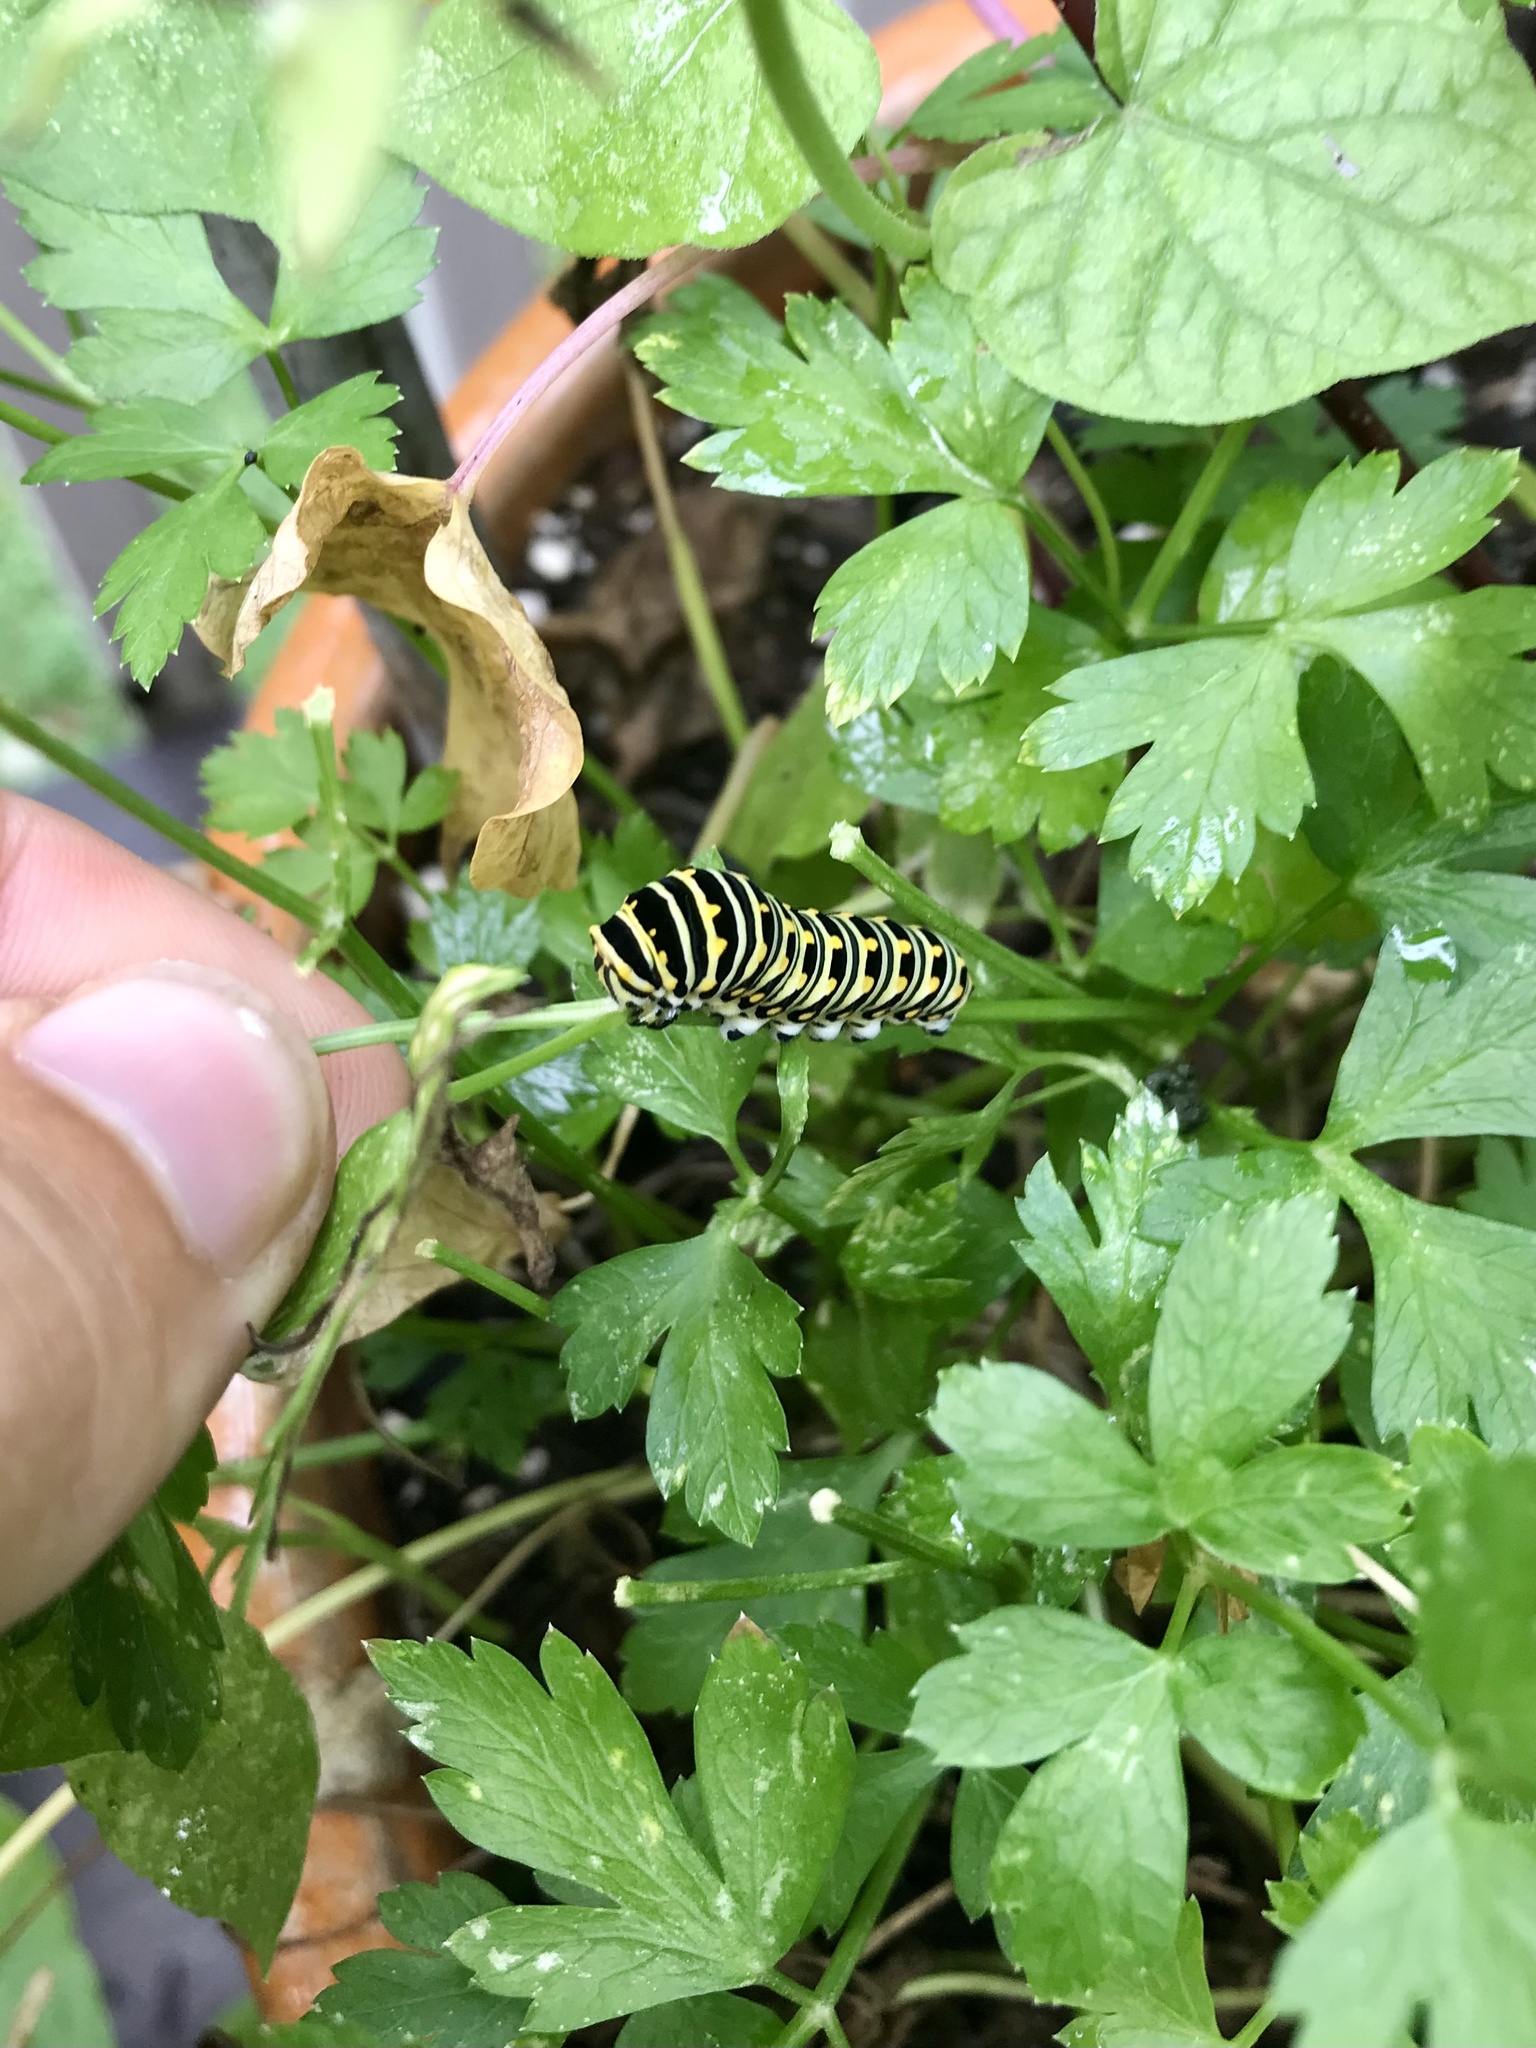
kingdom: Animalia
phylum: Arthropoda
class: Insecta
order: Lepidoptera
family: Papilionidae
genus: Papilio
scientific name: Papilio polyxenes
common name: Black swallowtail
